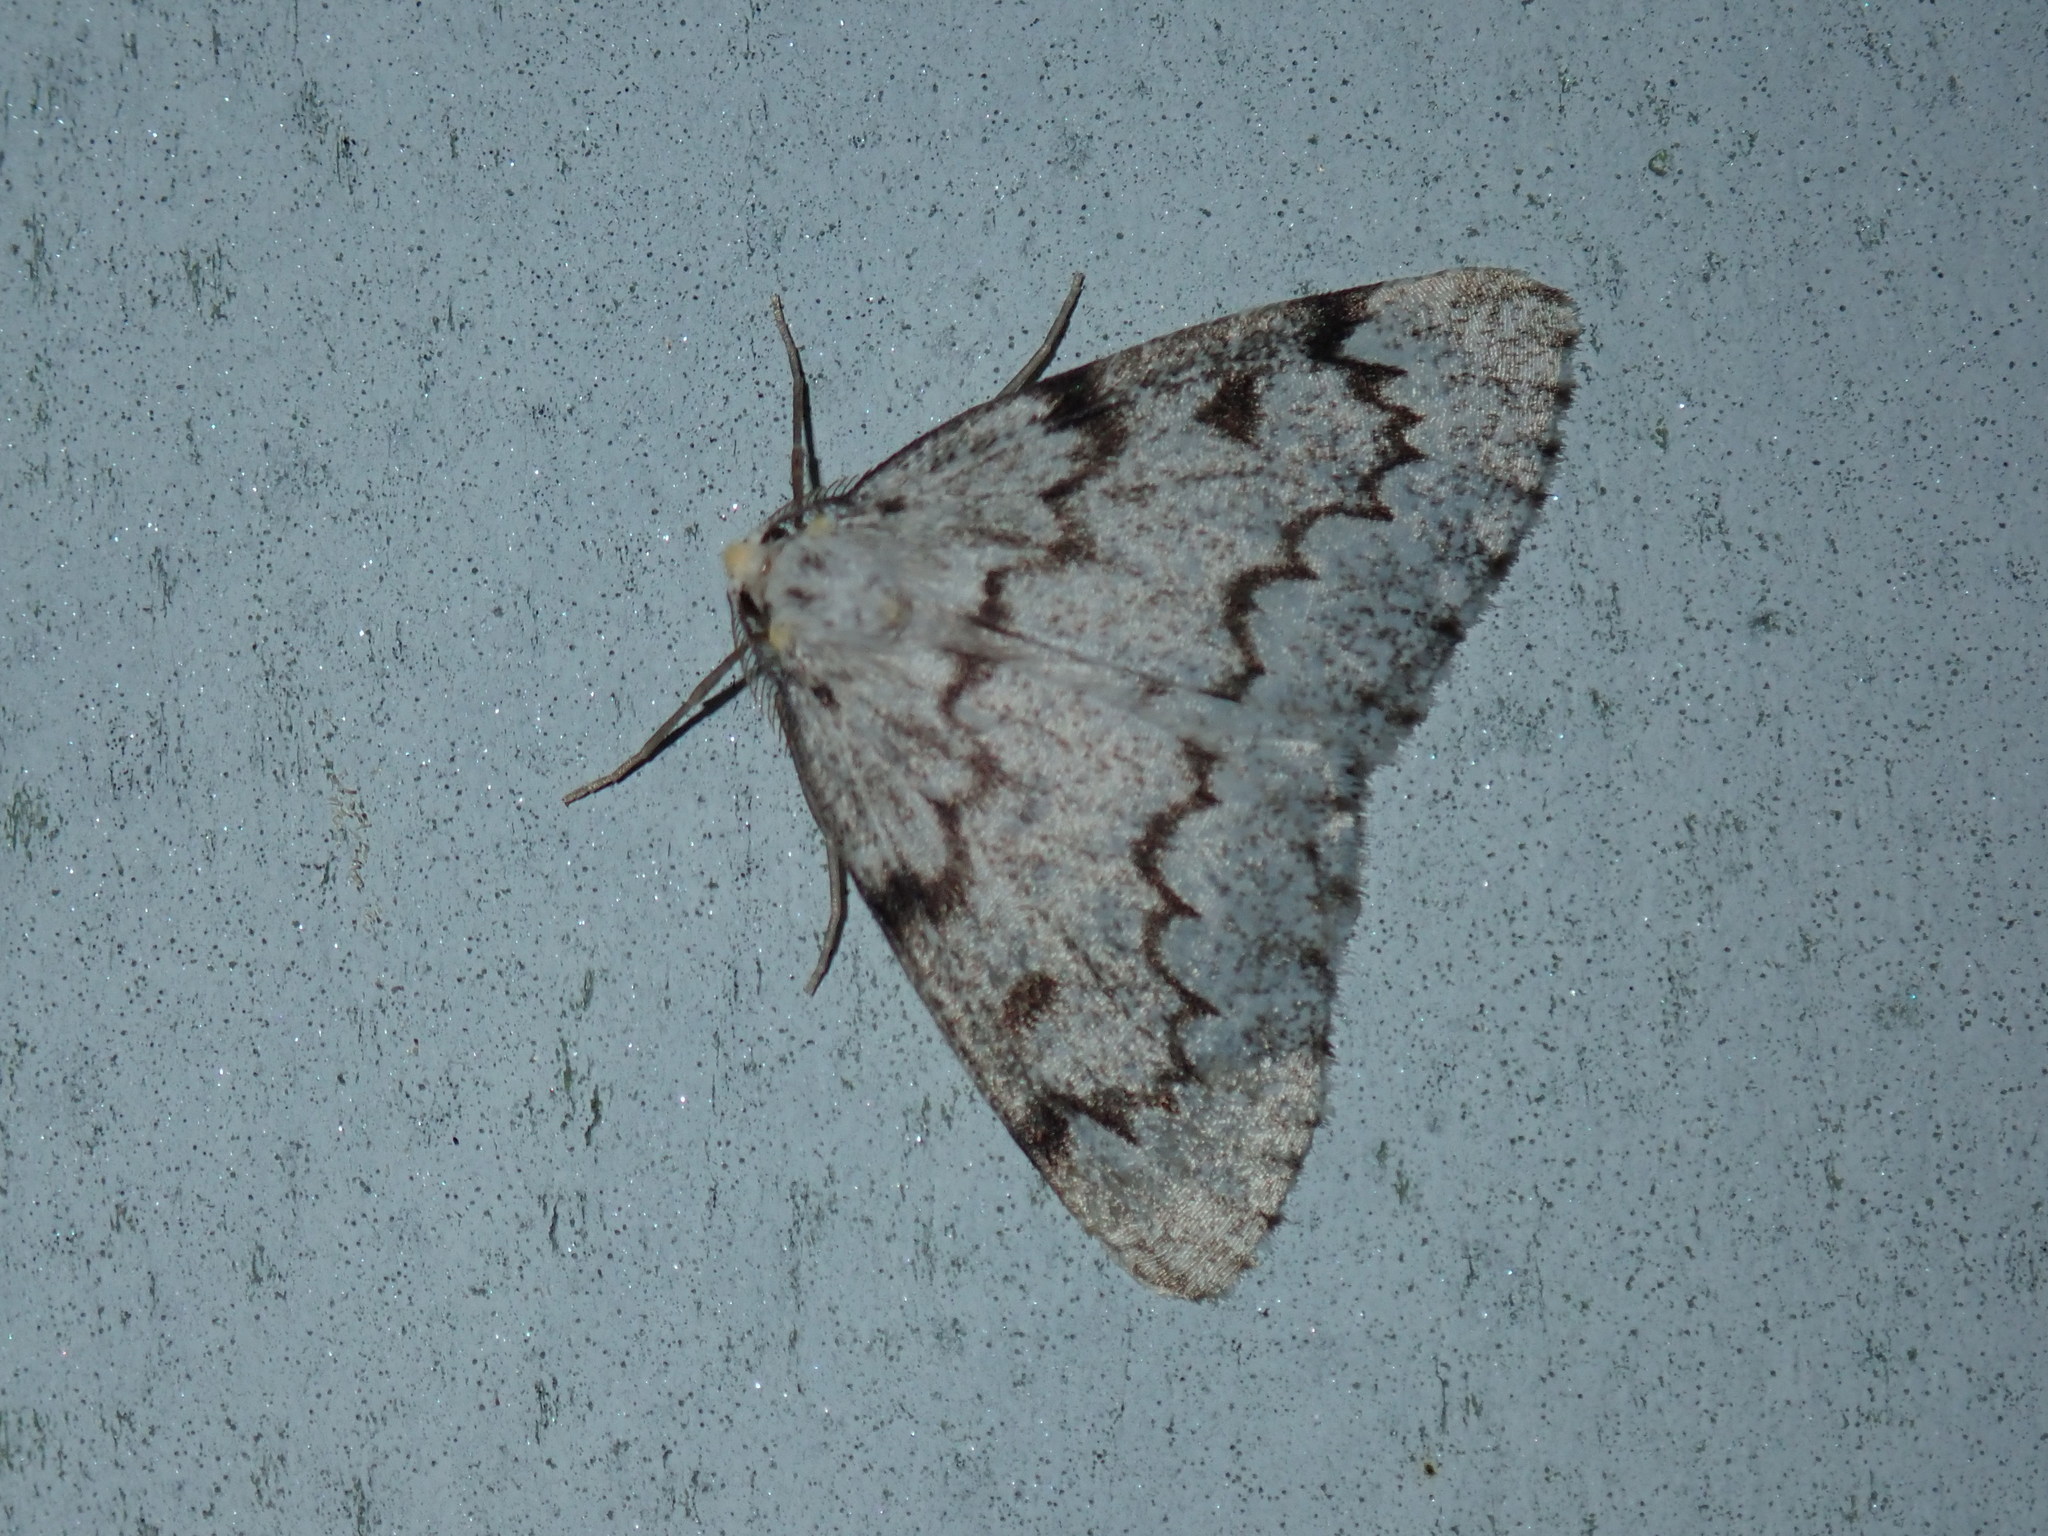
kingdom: Animalia
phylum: Arthropoda
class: Insecta
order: Lepidoptera
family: Geometridae
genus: Nepytia
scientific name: Nepytia canosaria
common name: False hemlock looper
